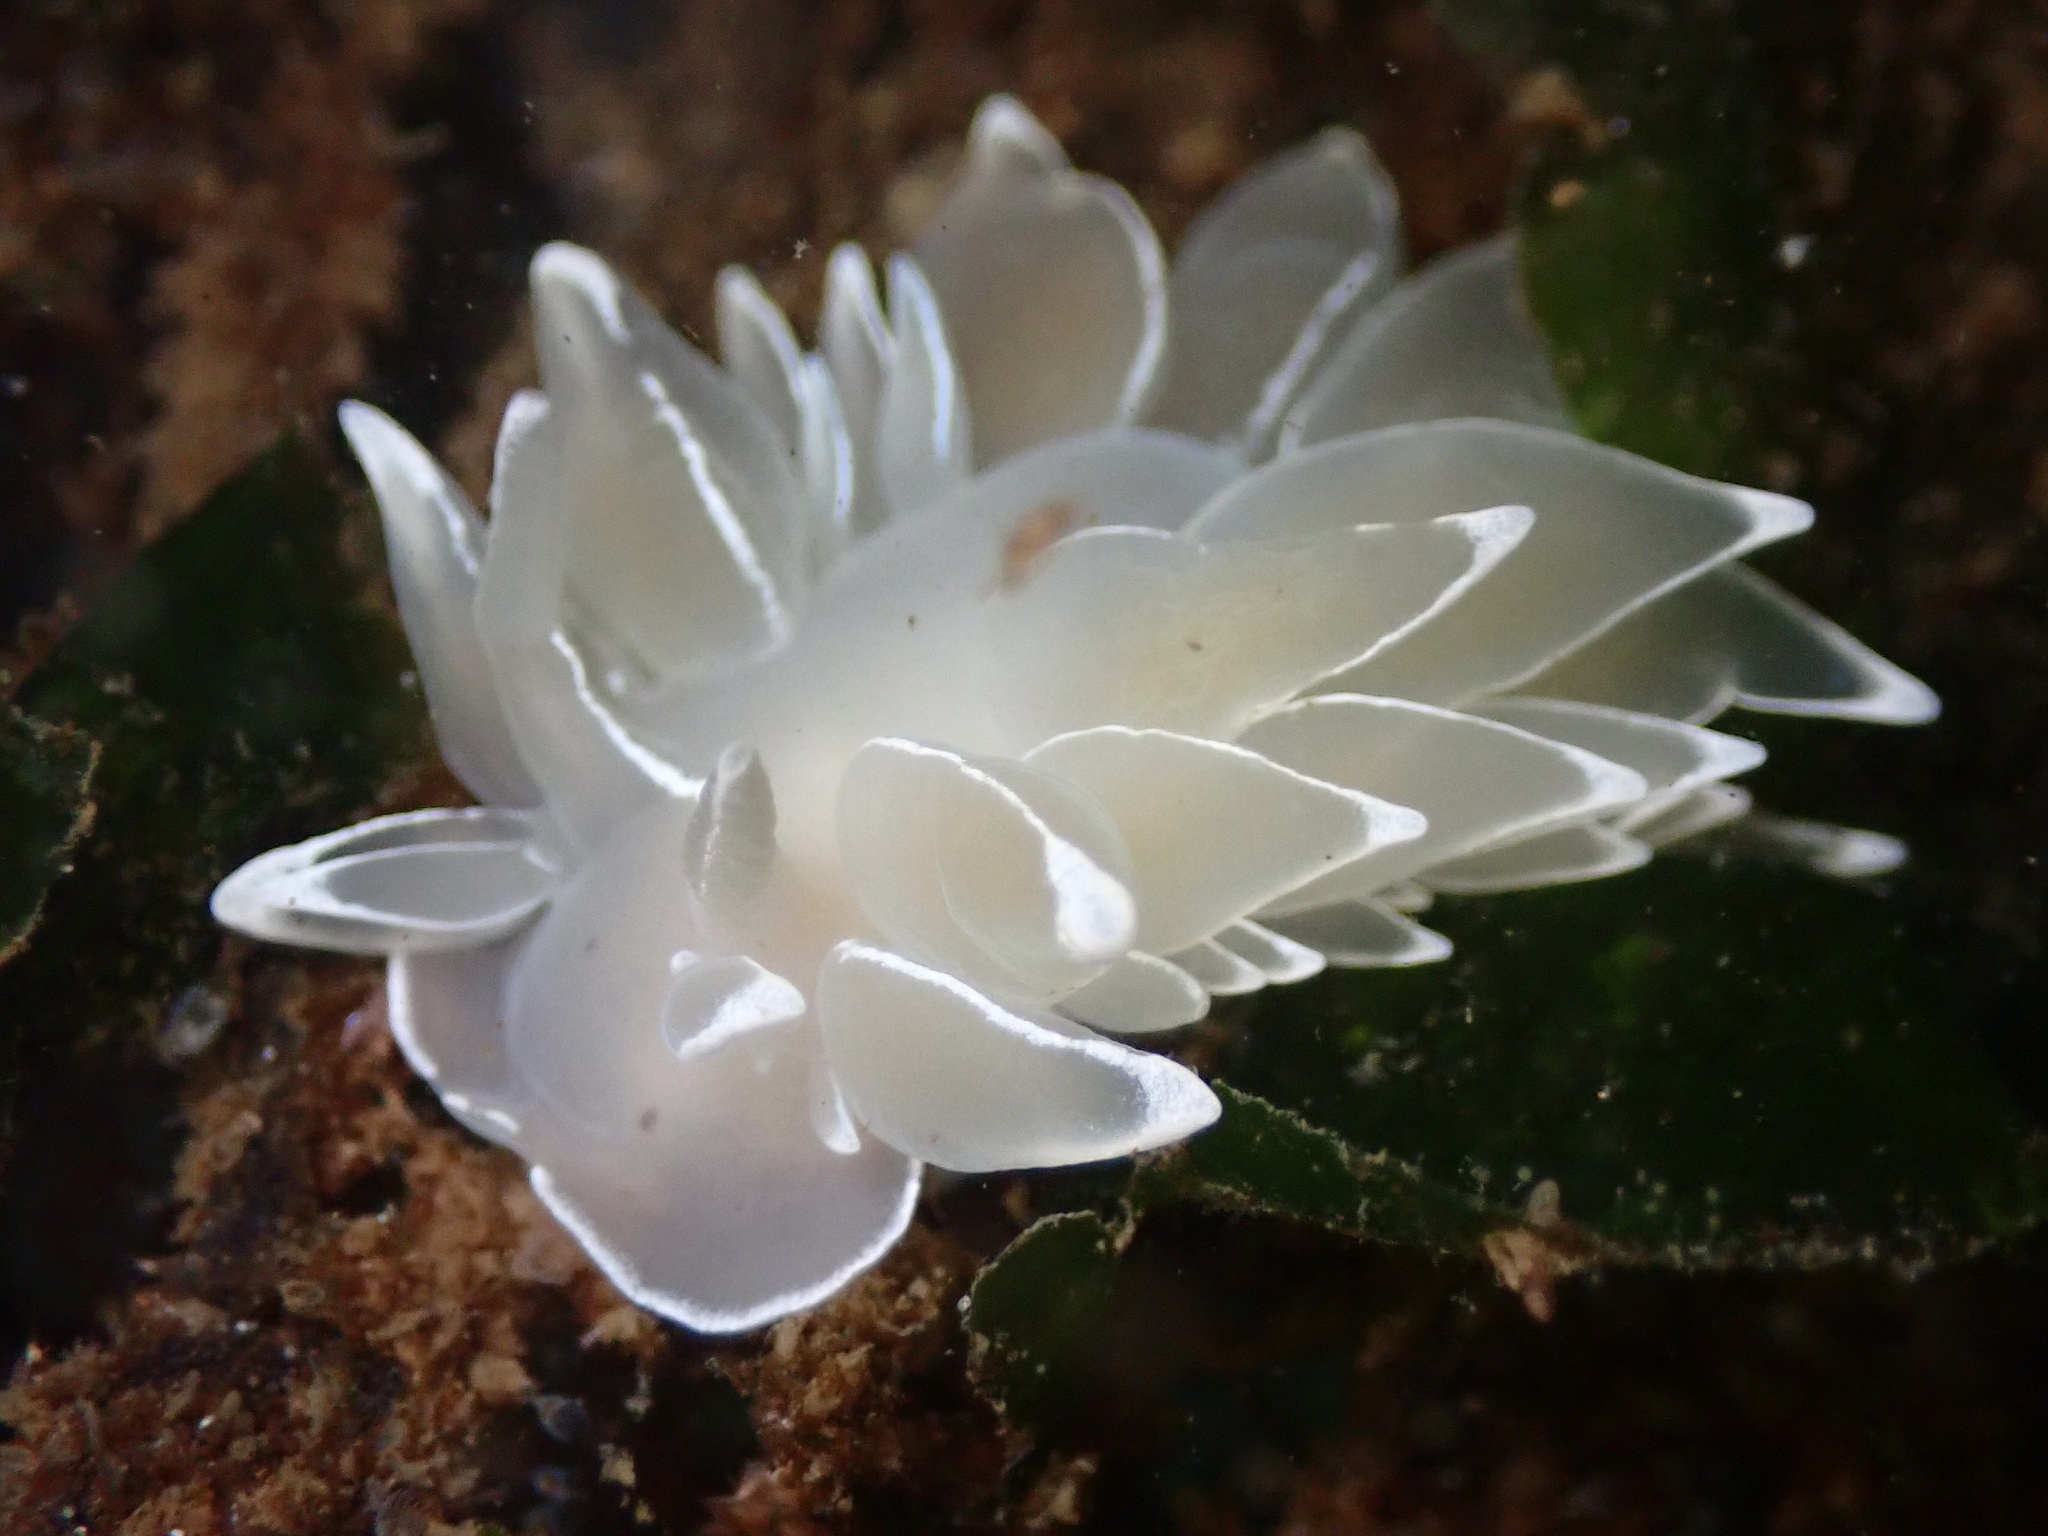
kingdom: Animalia
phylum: Mollusca
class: Gastropoda
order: Nudibranchia
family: Dironidae
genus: Dirona
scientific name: Dirona albolineata
